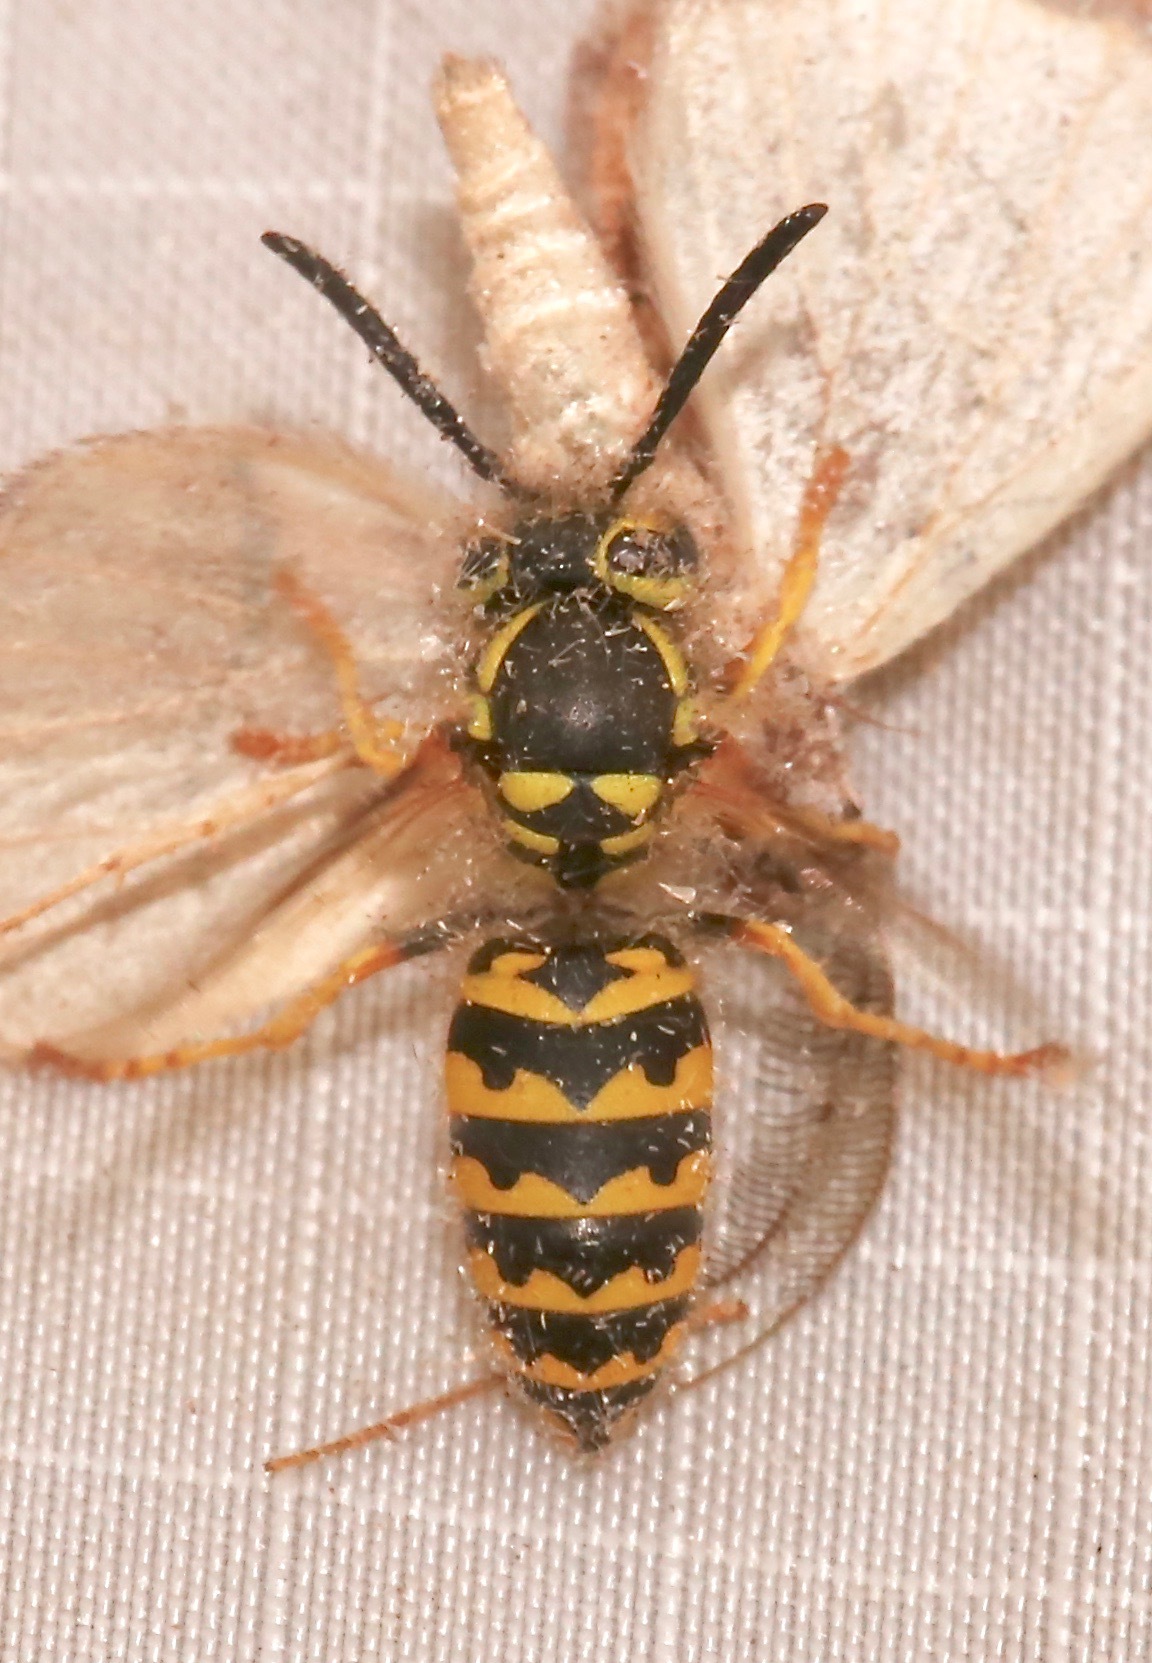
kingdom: Animalia
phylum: Arthropoda
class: Insecta
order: Hymenoptera
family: Vespidae
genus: Vespula
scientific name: Vespula pensylvanica
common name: Western yellowjacket
